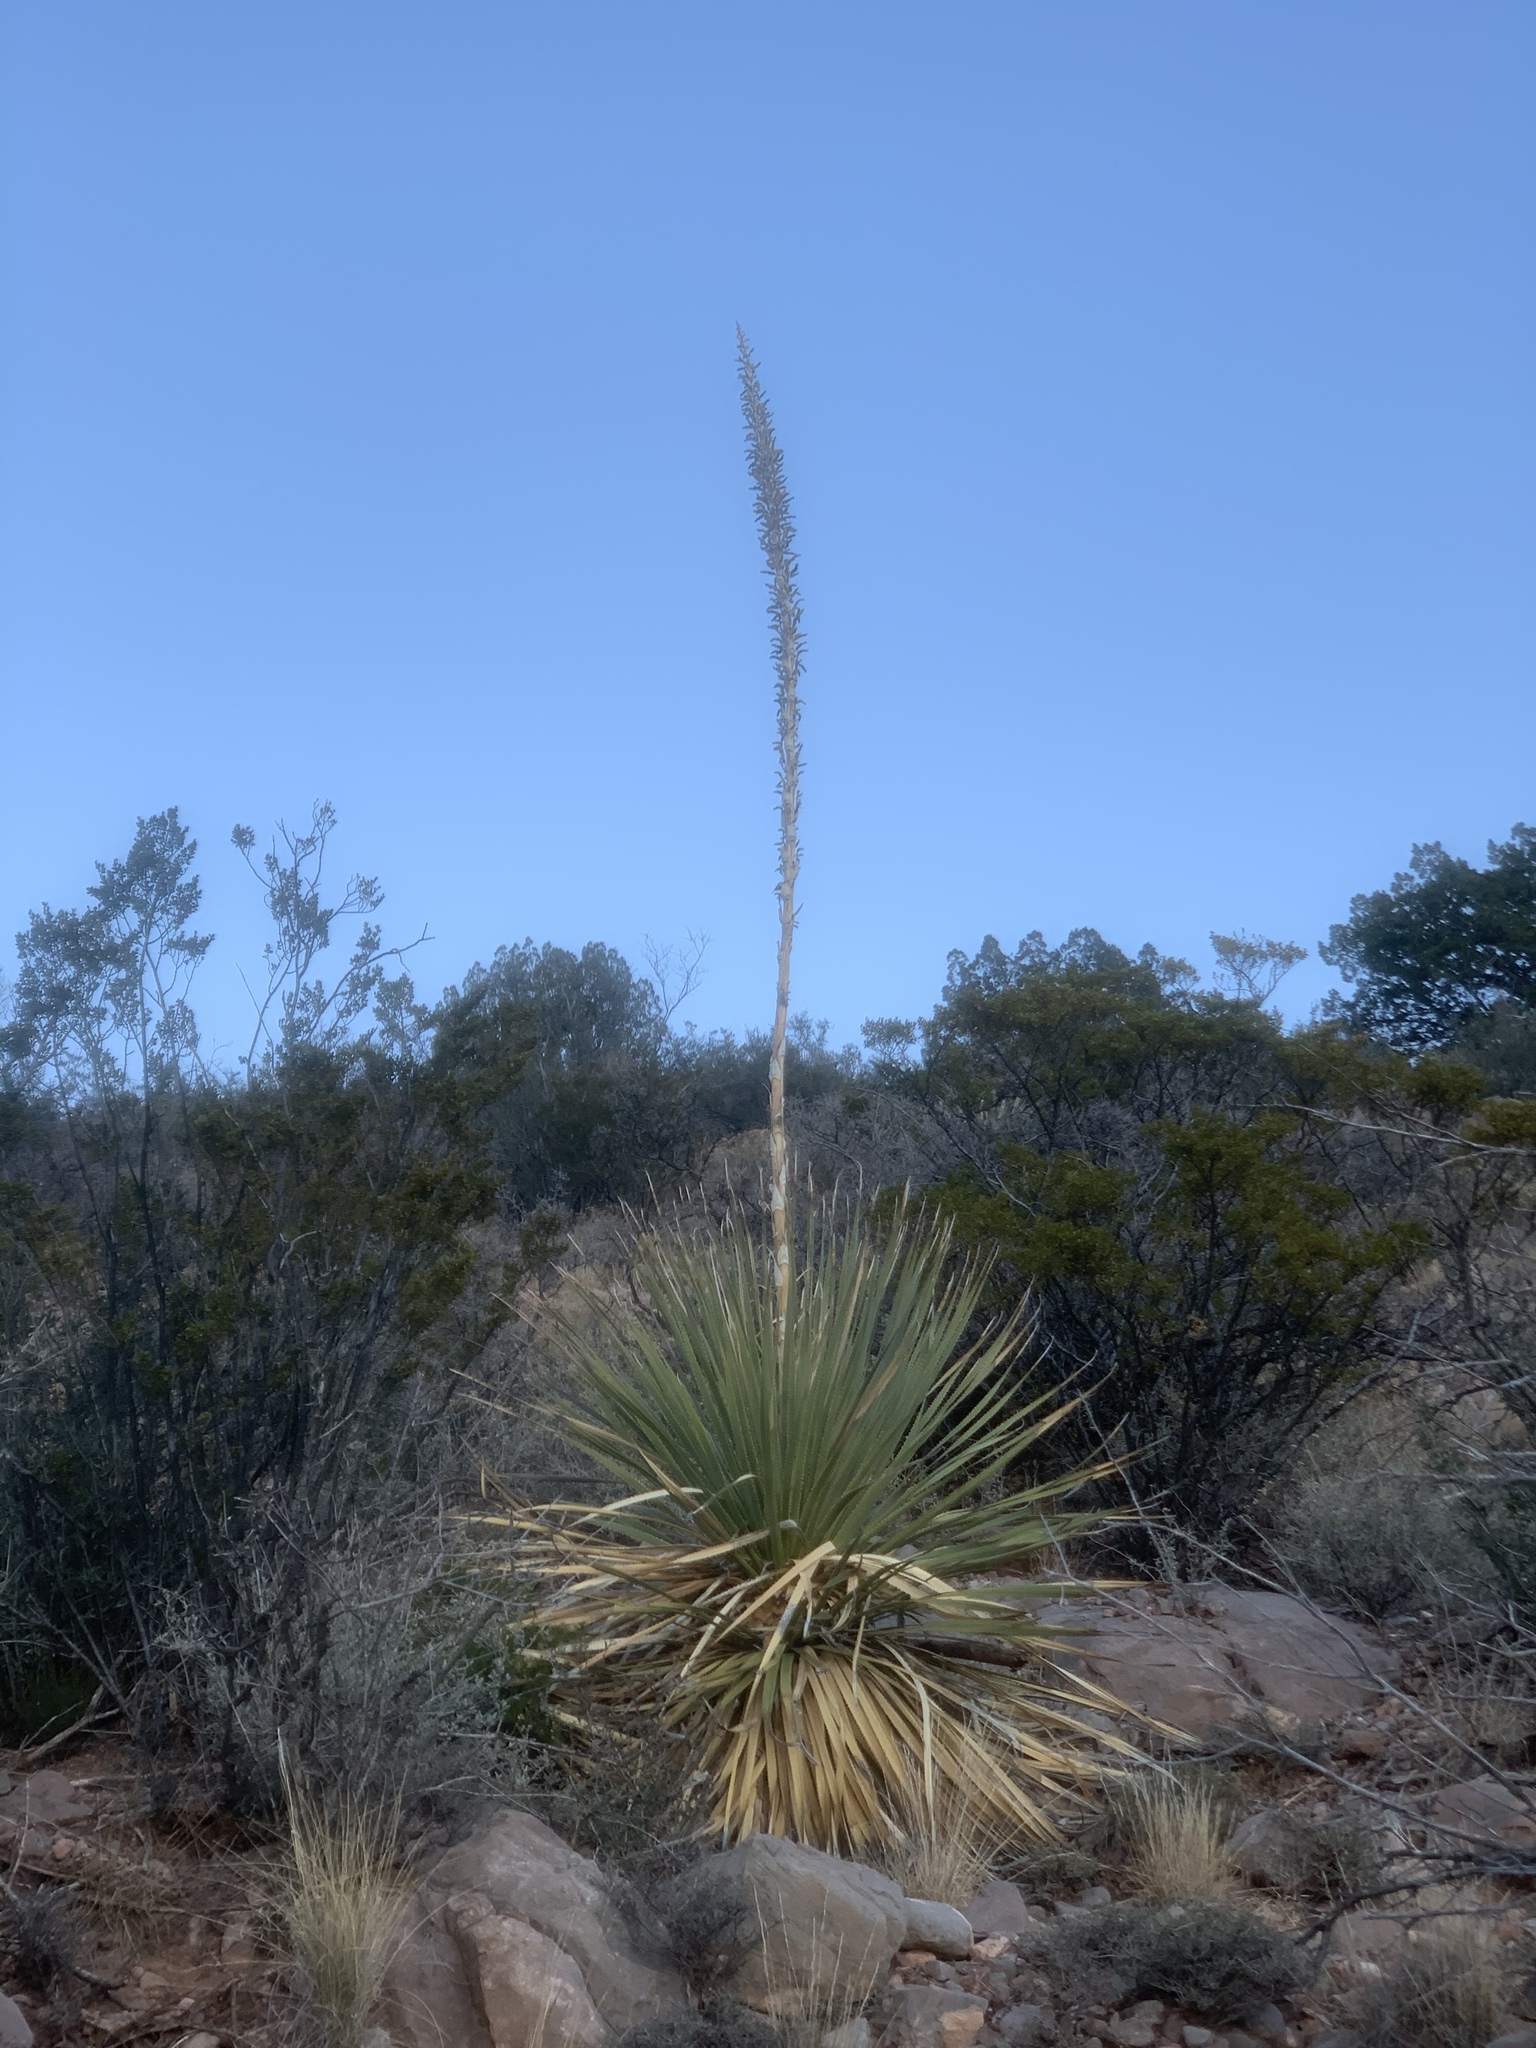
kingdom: Plantae
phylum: Tracheophyta
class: Liliopsida
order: Asparagales
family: Asparagaceae
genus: Dasylirion
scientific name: Dasylirion wheeleri
